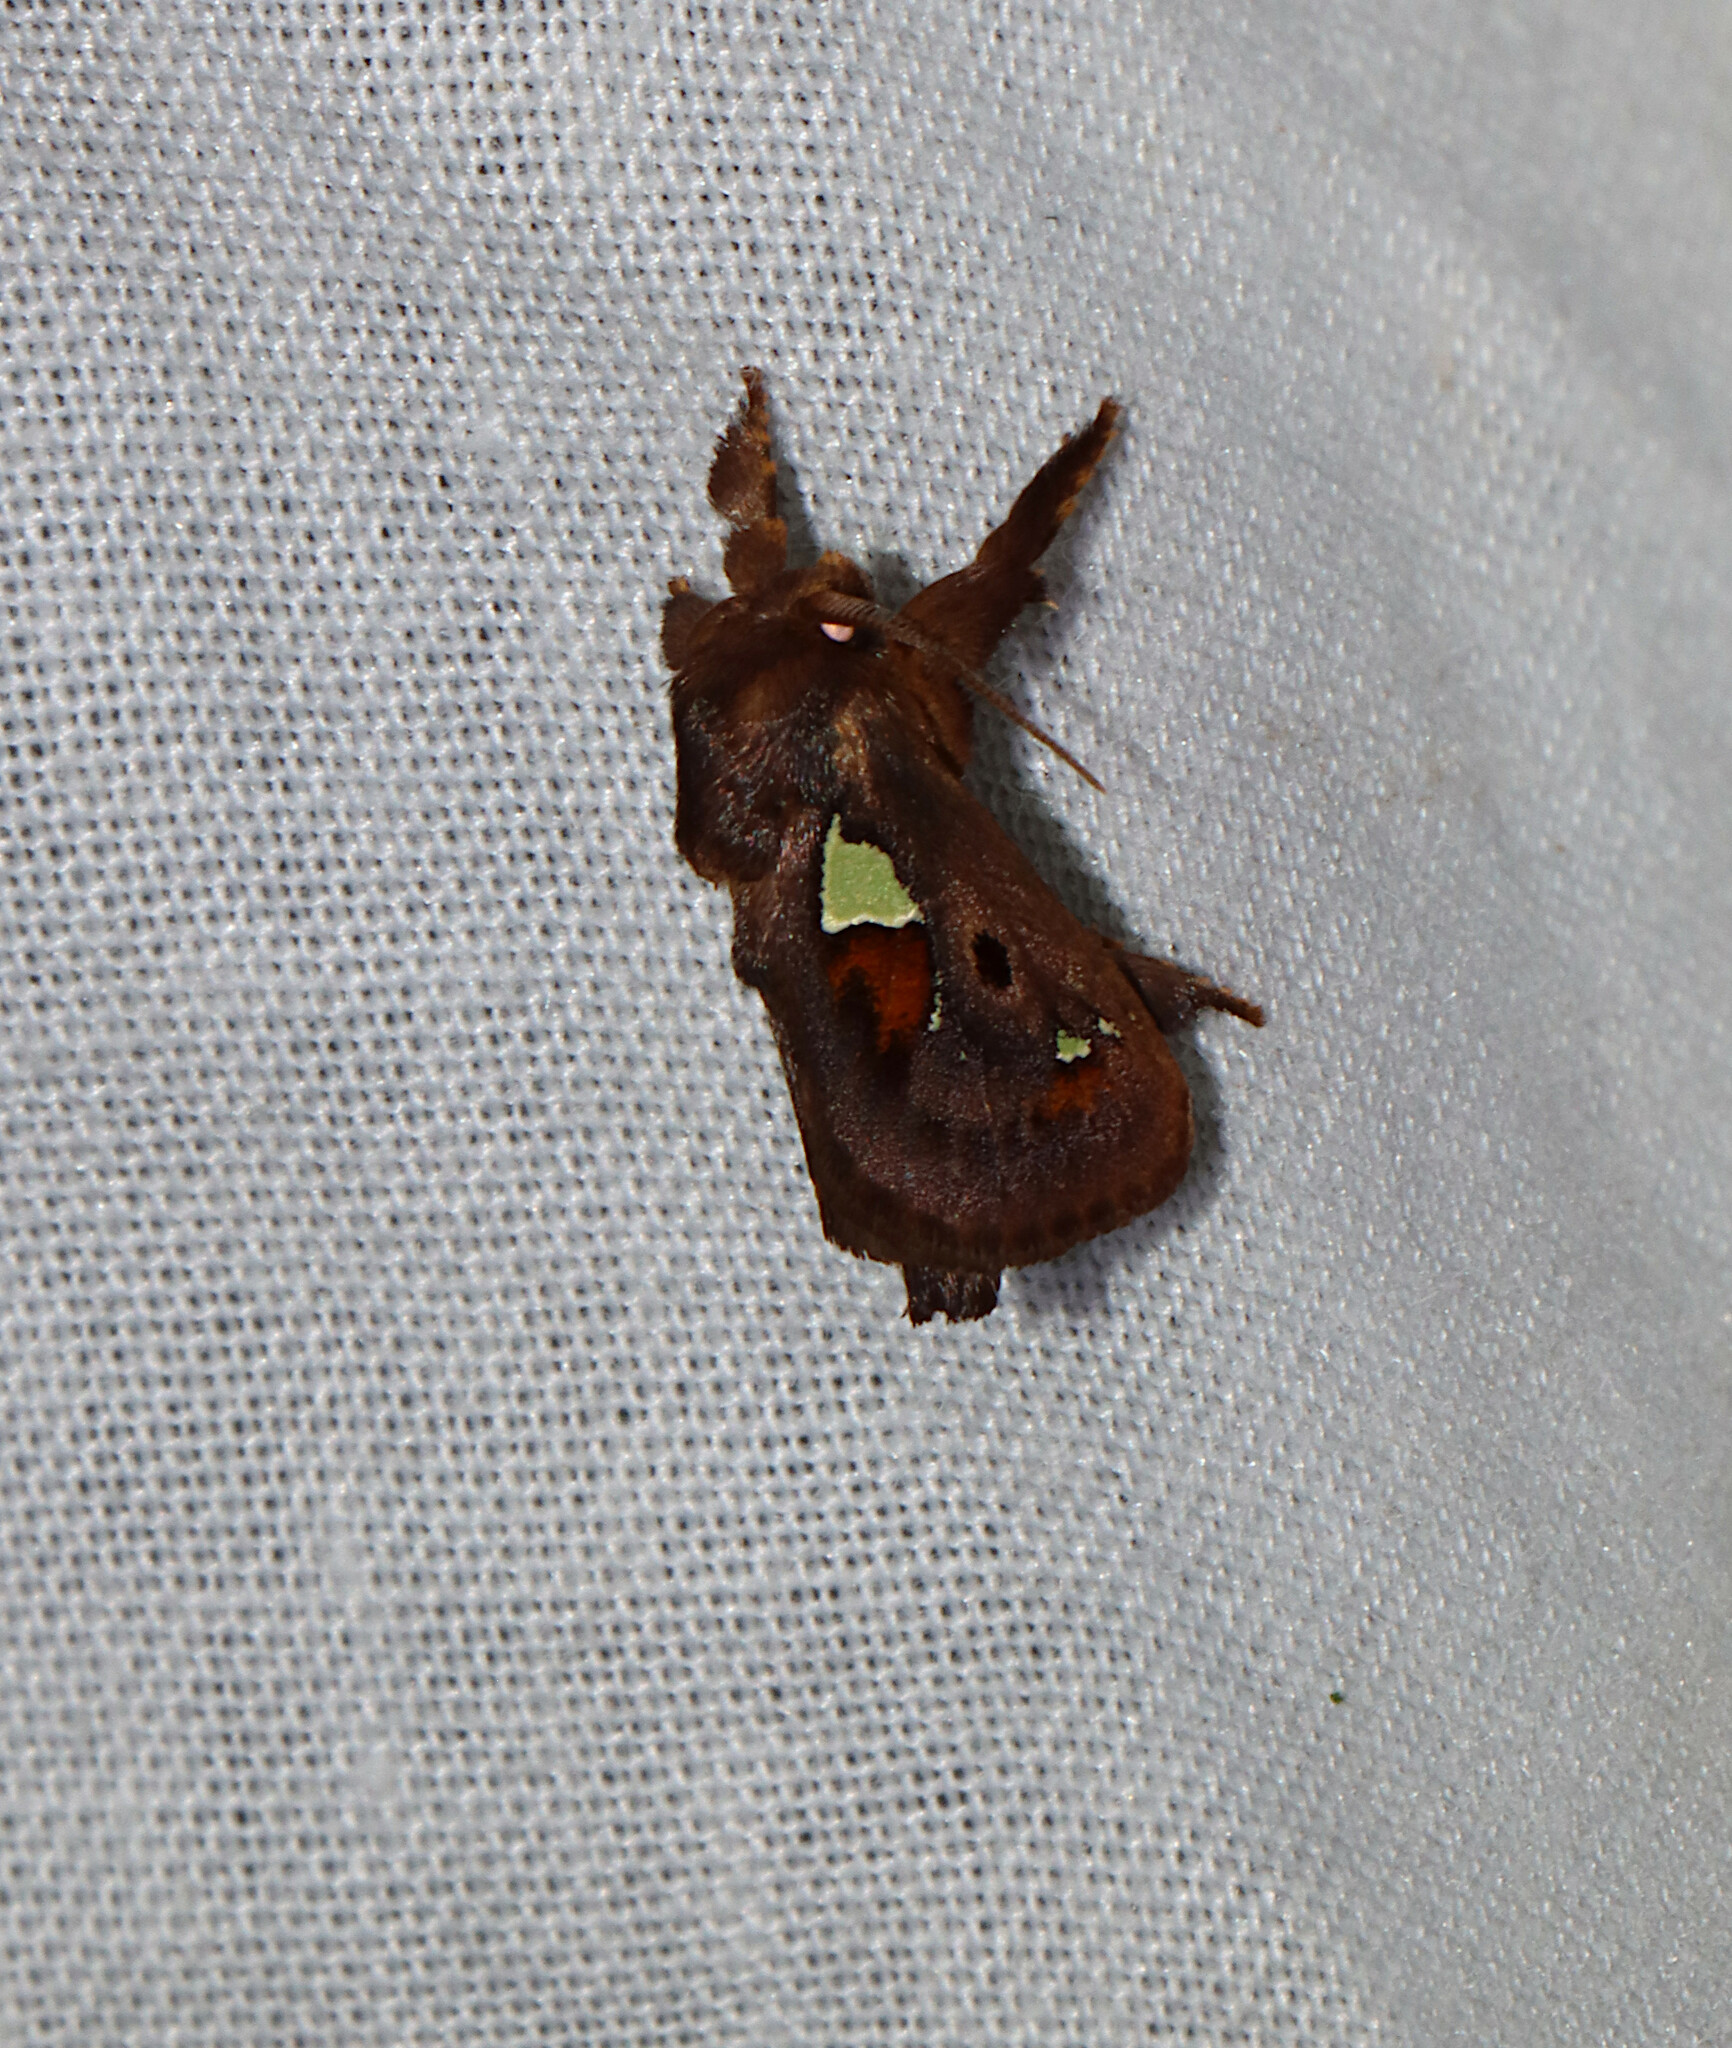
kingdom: Animalia
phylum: Arthropoda
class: Insecta
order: Lepidoptera
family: Limacodidae
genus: Euclea
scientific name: Euclea delphinii
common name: Spiny oak-slug moth
